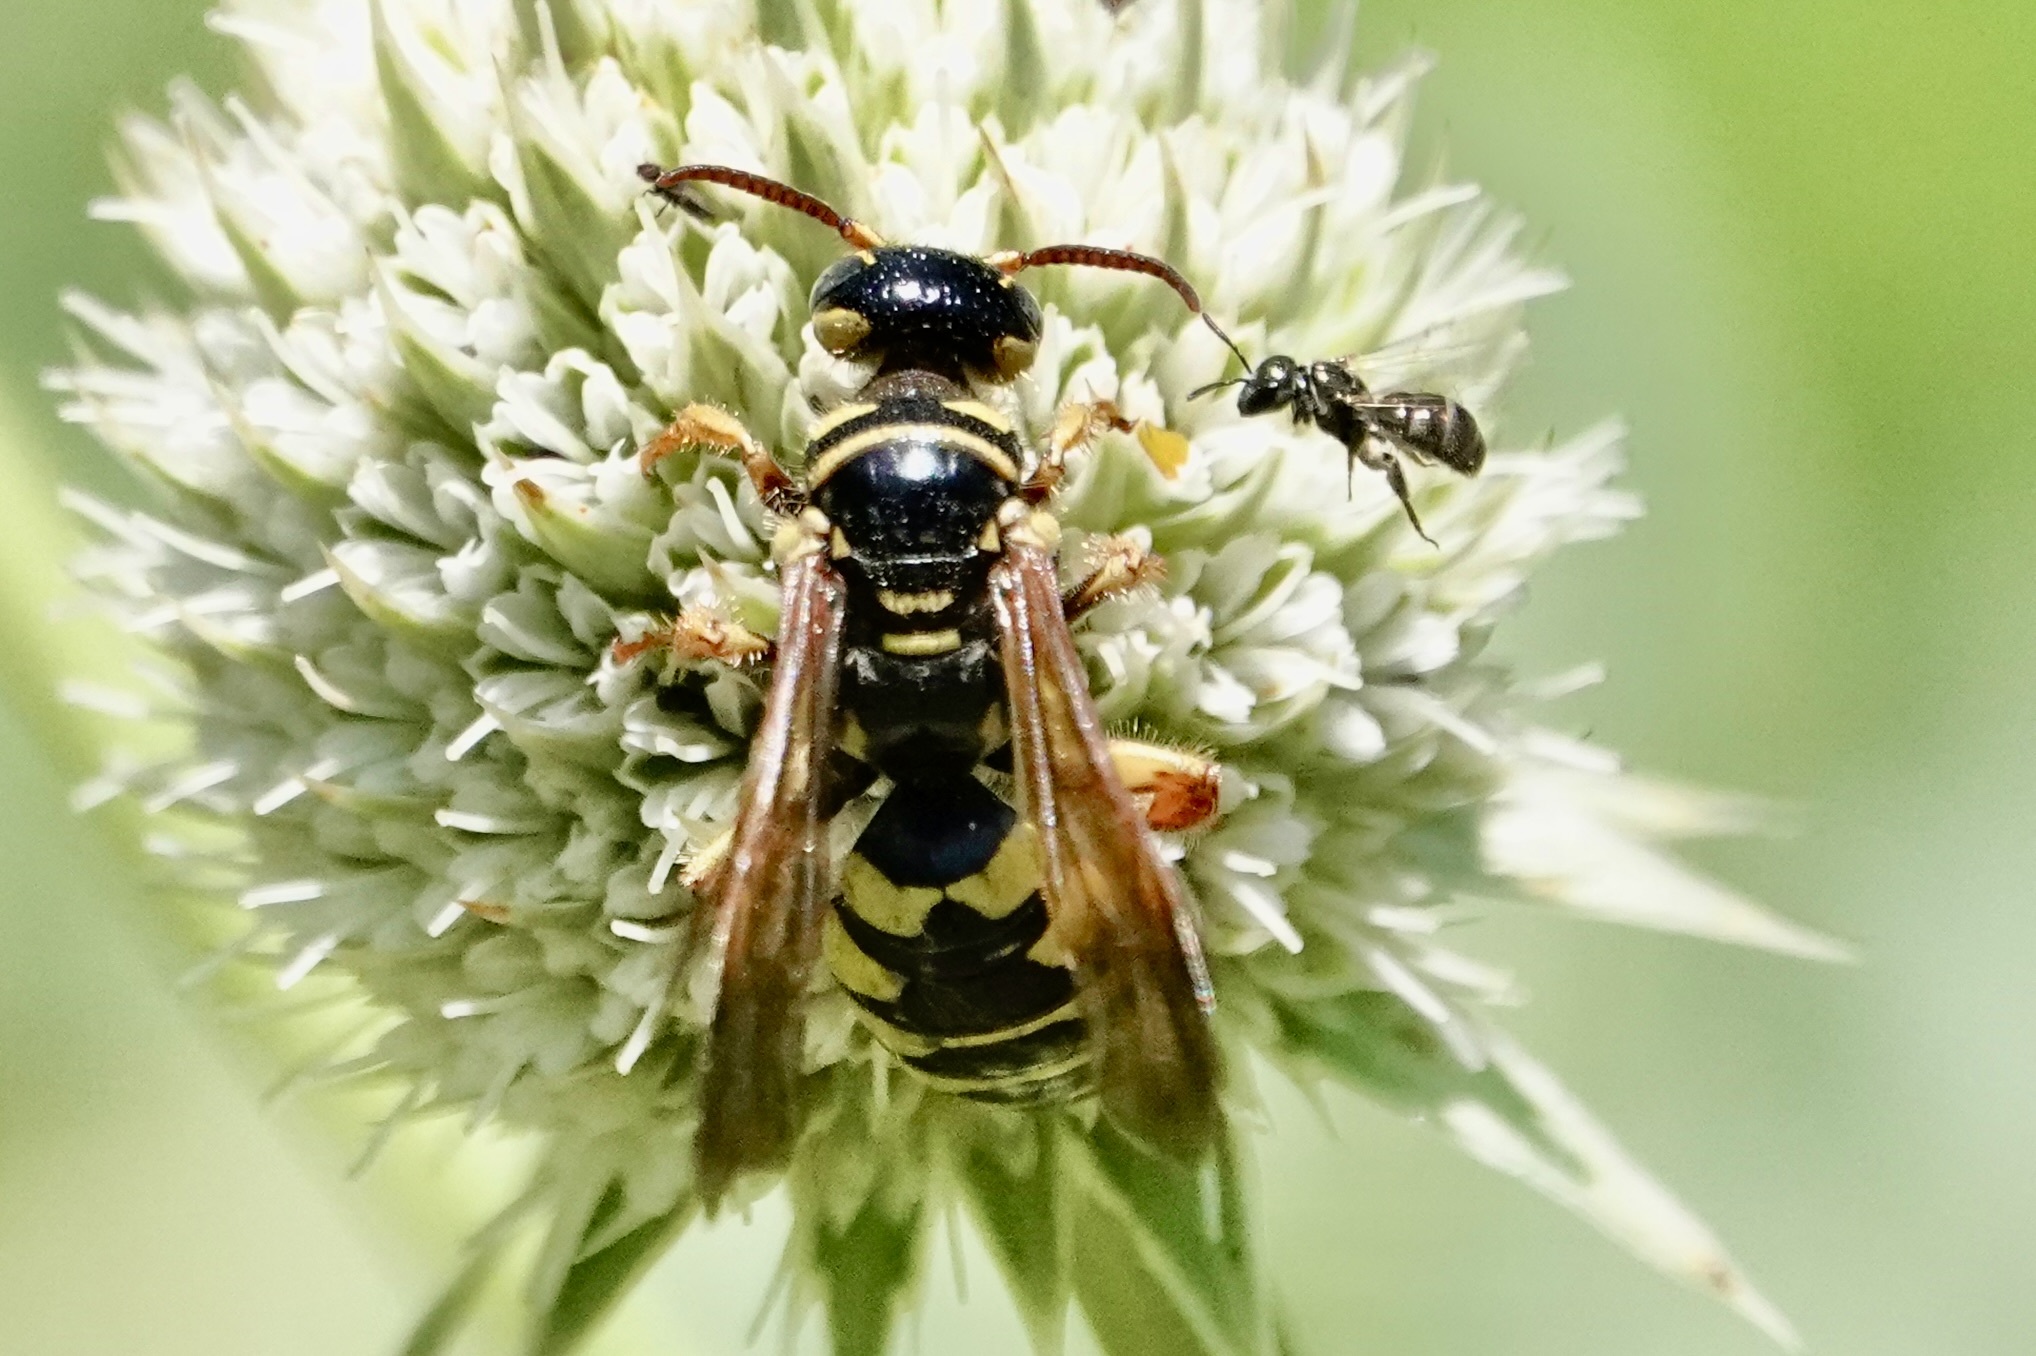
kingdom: Animalia
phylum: Arthropoda
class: Insecta
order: Hymenoptera
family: Tiphiidae
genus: Myzinum
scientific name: Myzinum quinquecinctum
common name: Five-banded thynnid wasp
